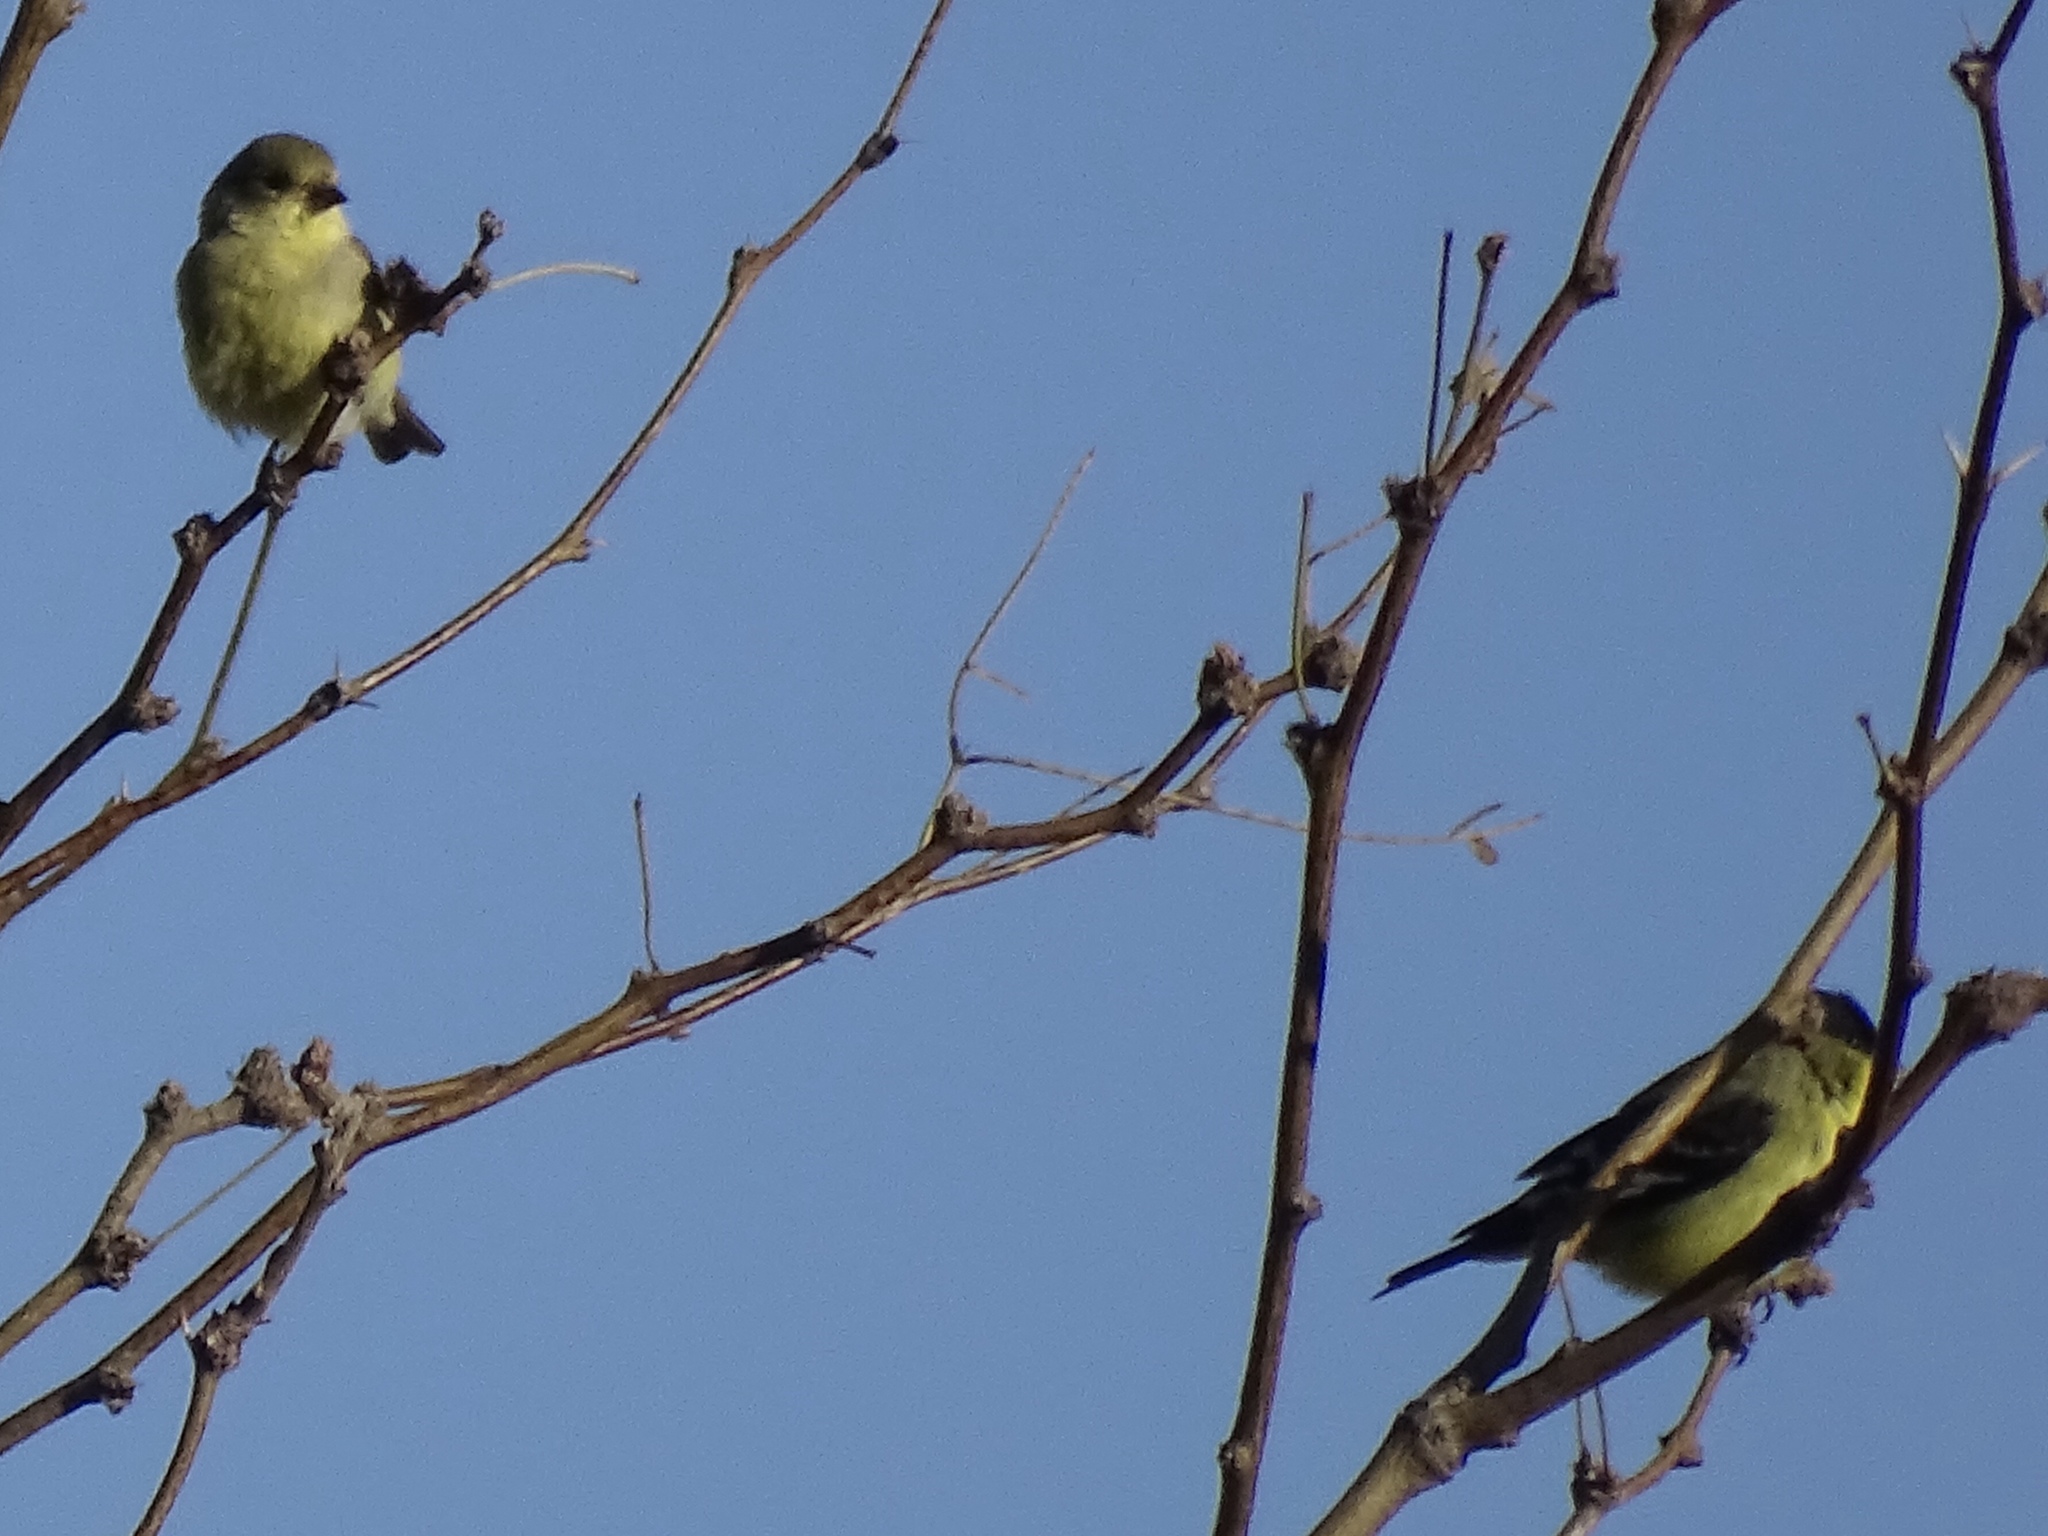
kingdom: Animalia
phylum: Chordata
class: Aves
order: Passeriformes
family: Fringillidae
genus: Spinus
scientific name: Spinus psaltria
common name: Lesser goldfinch
